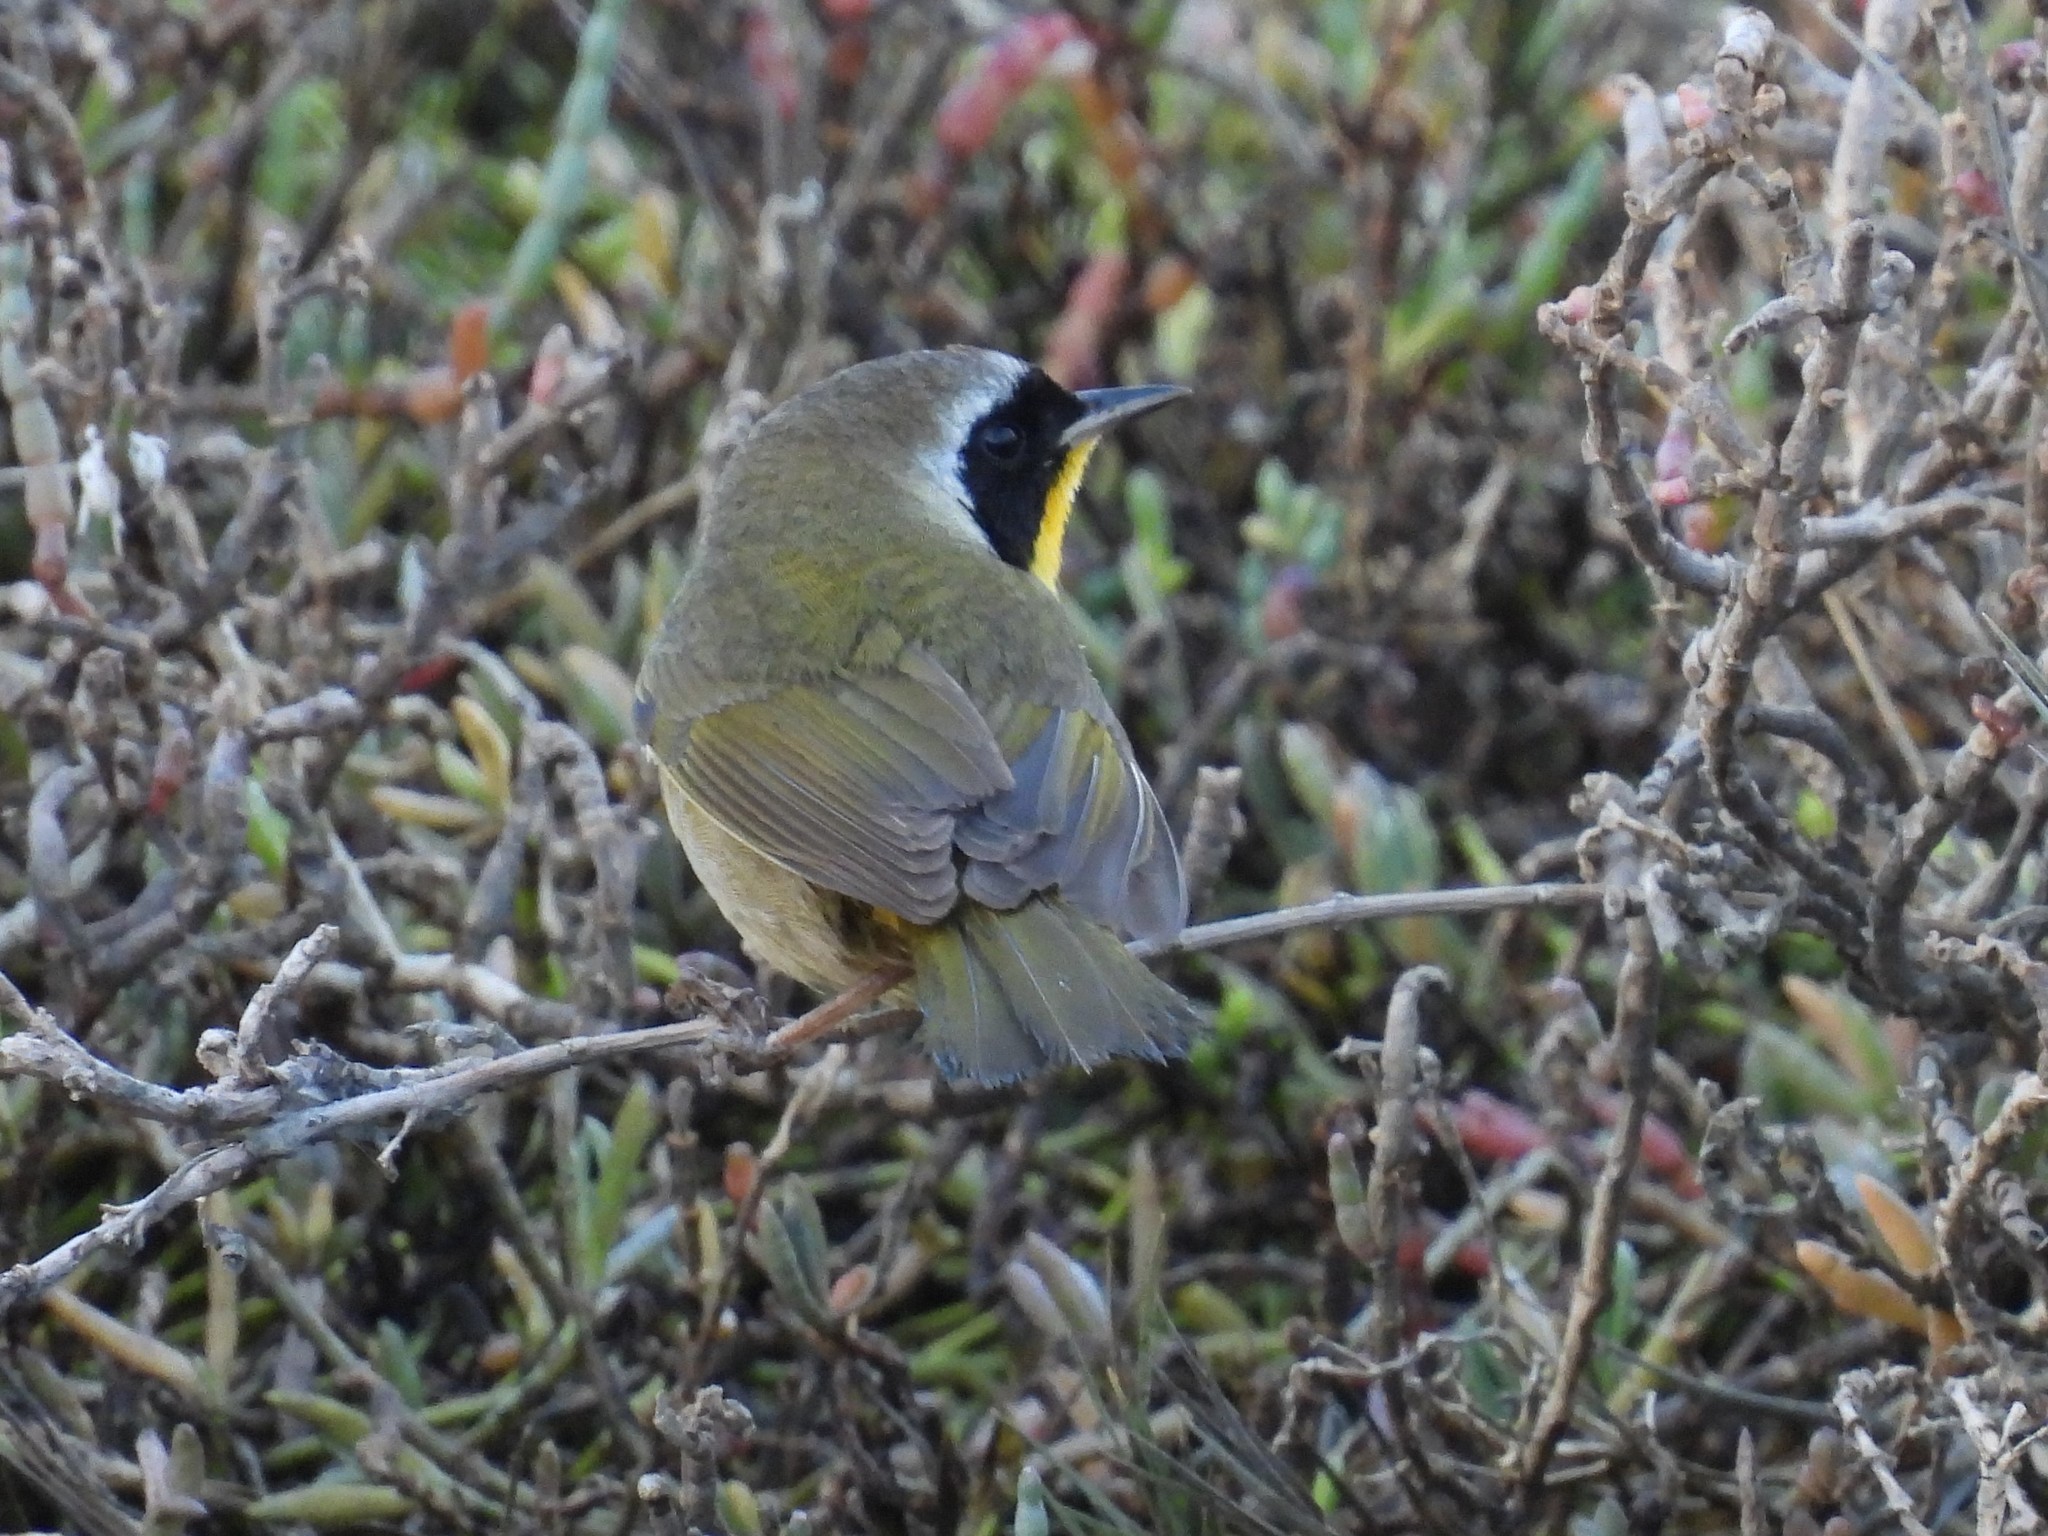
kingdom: Animalia
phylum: Chordata
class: Aves
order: Passeriformes
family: Parulidae
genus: Geothlypis
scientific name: Geothlypis trichas
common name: Common yellowthroat
